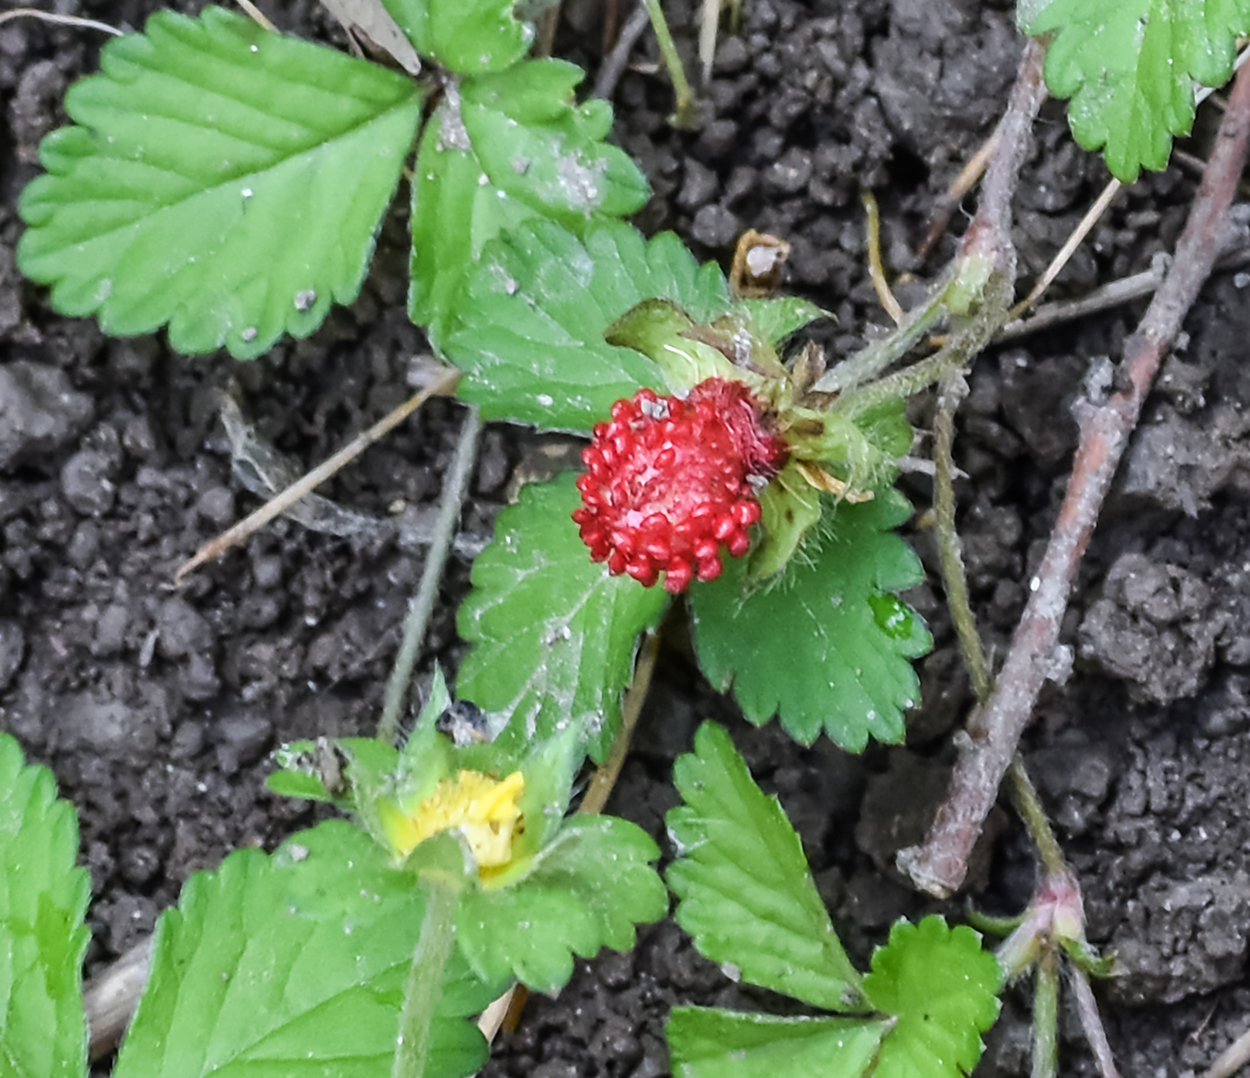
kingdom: Plantae
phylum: Tracheophyta
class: Magnoliopsida
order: Rosales
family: Rosaceae
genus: Potentilla
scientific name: Potentilla indica
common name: Yellow-flowered strawberry
